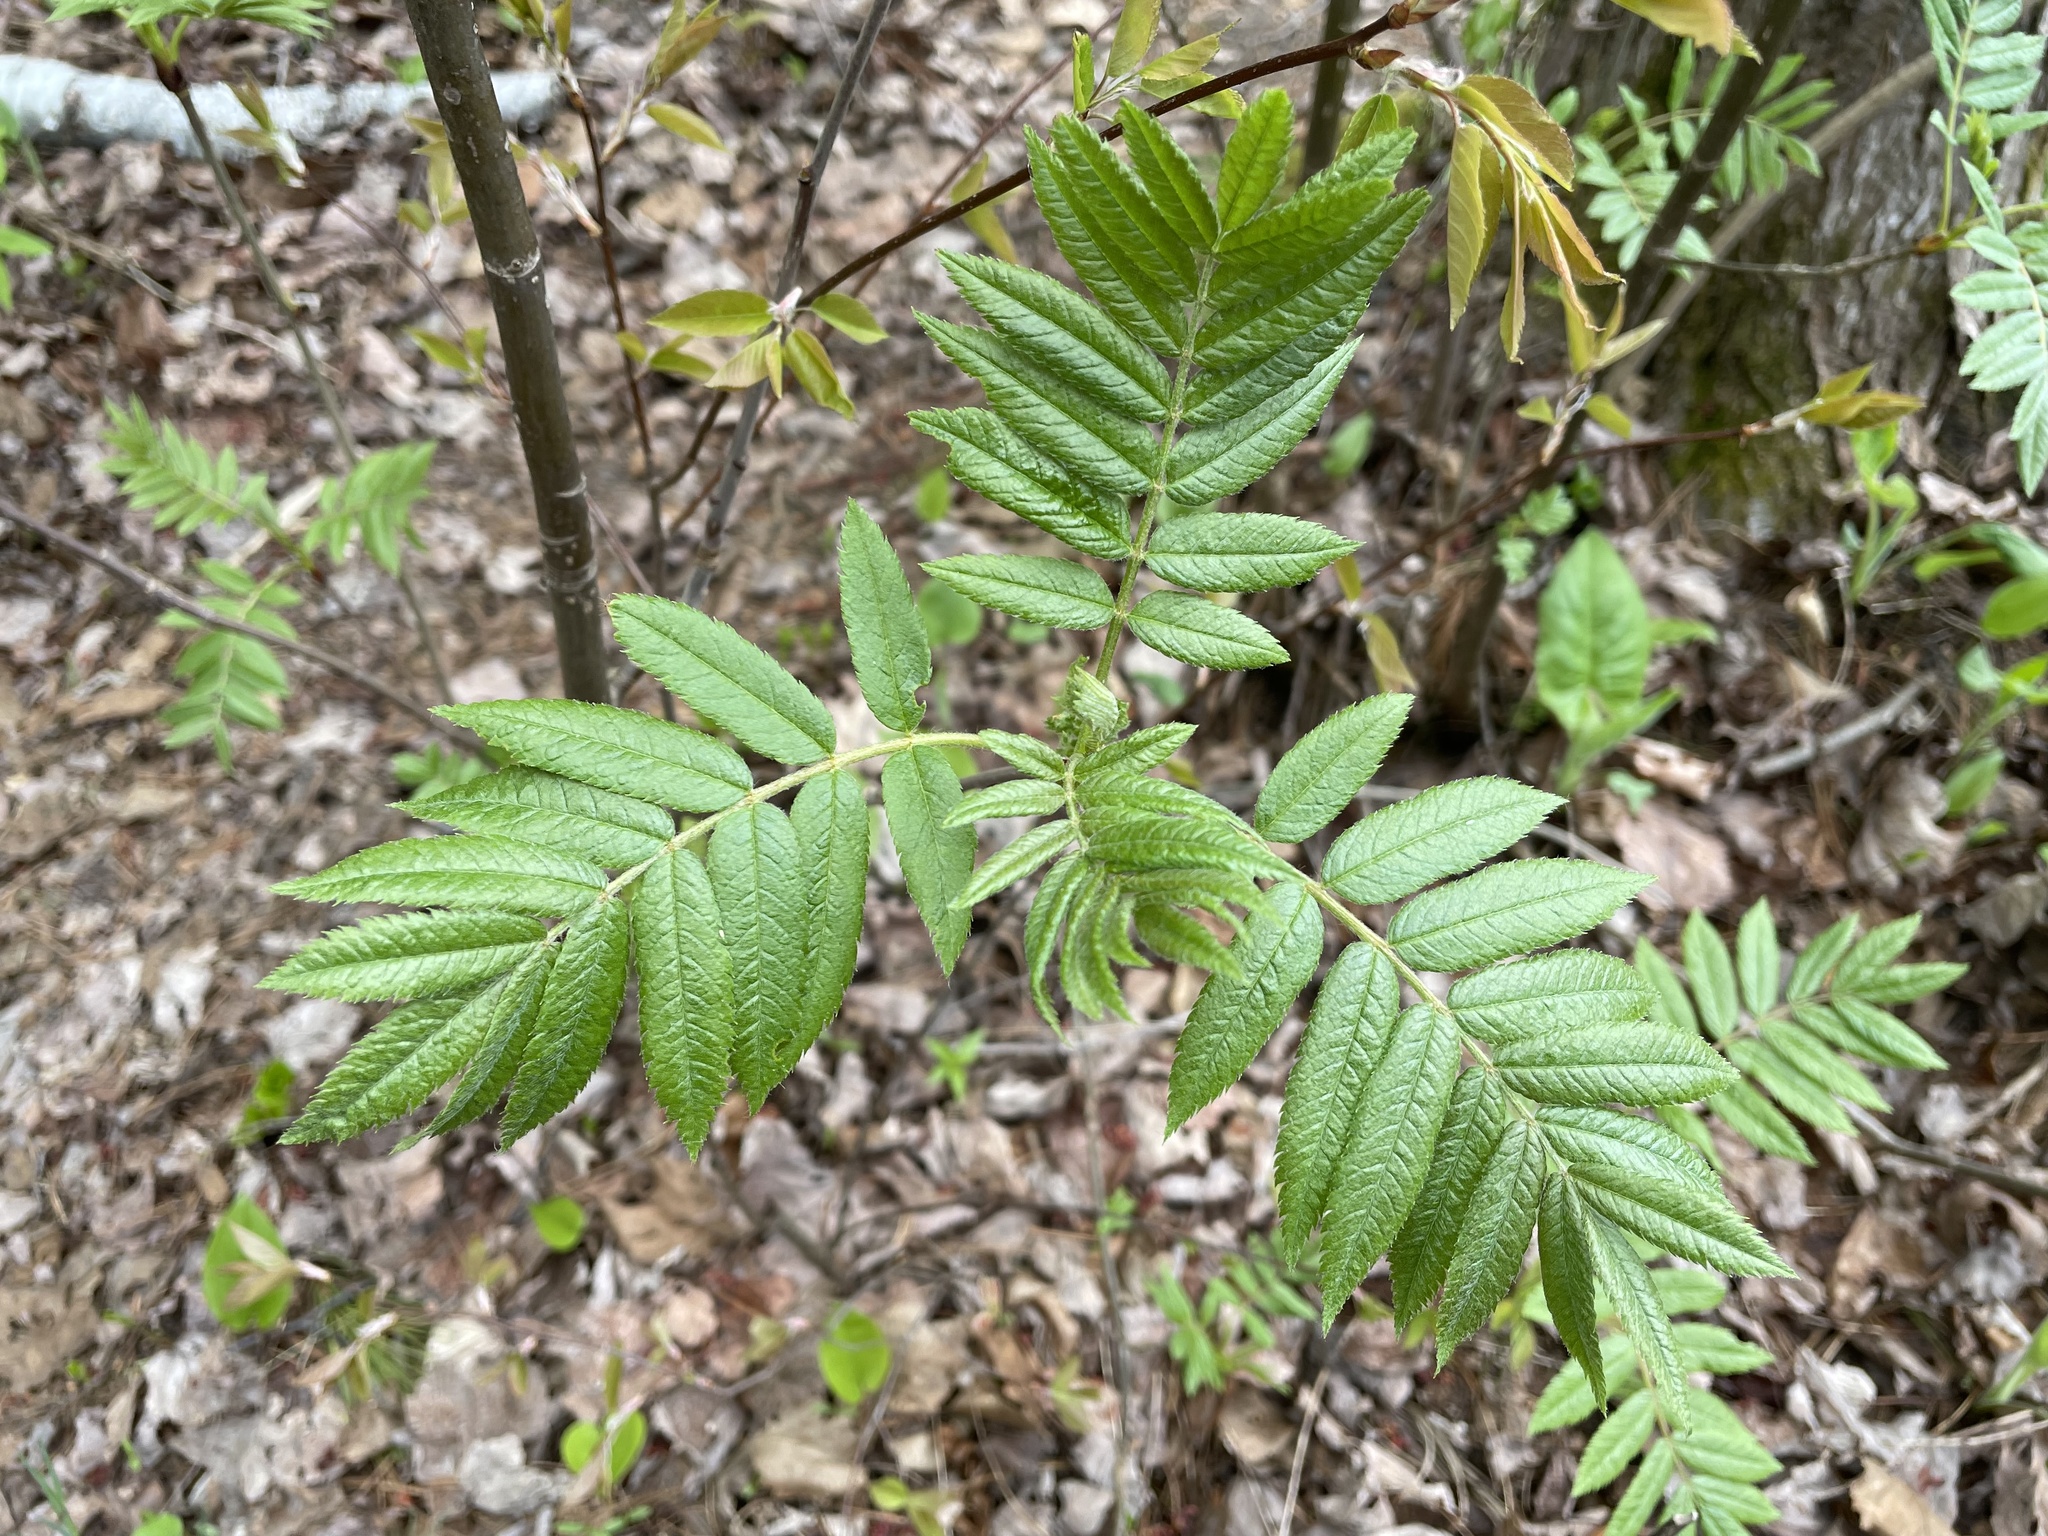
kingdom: Plantae
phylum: Tracheophyta
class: Magnoliopsida
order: Rosales
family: Rosaceae
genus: Sorbus
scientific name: Sorbus americana
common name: American mountain-ash
